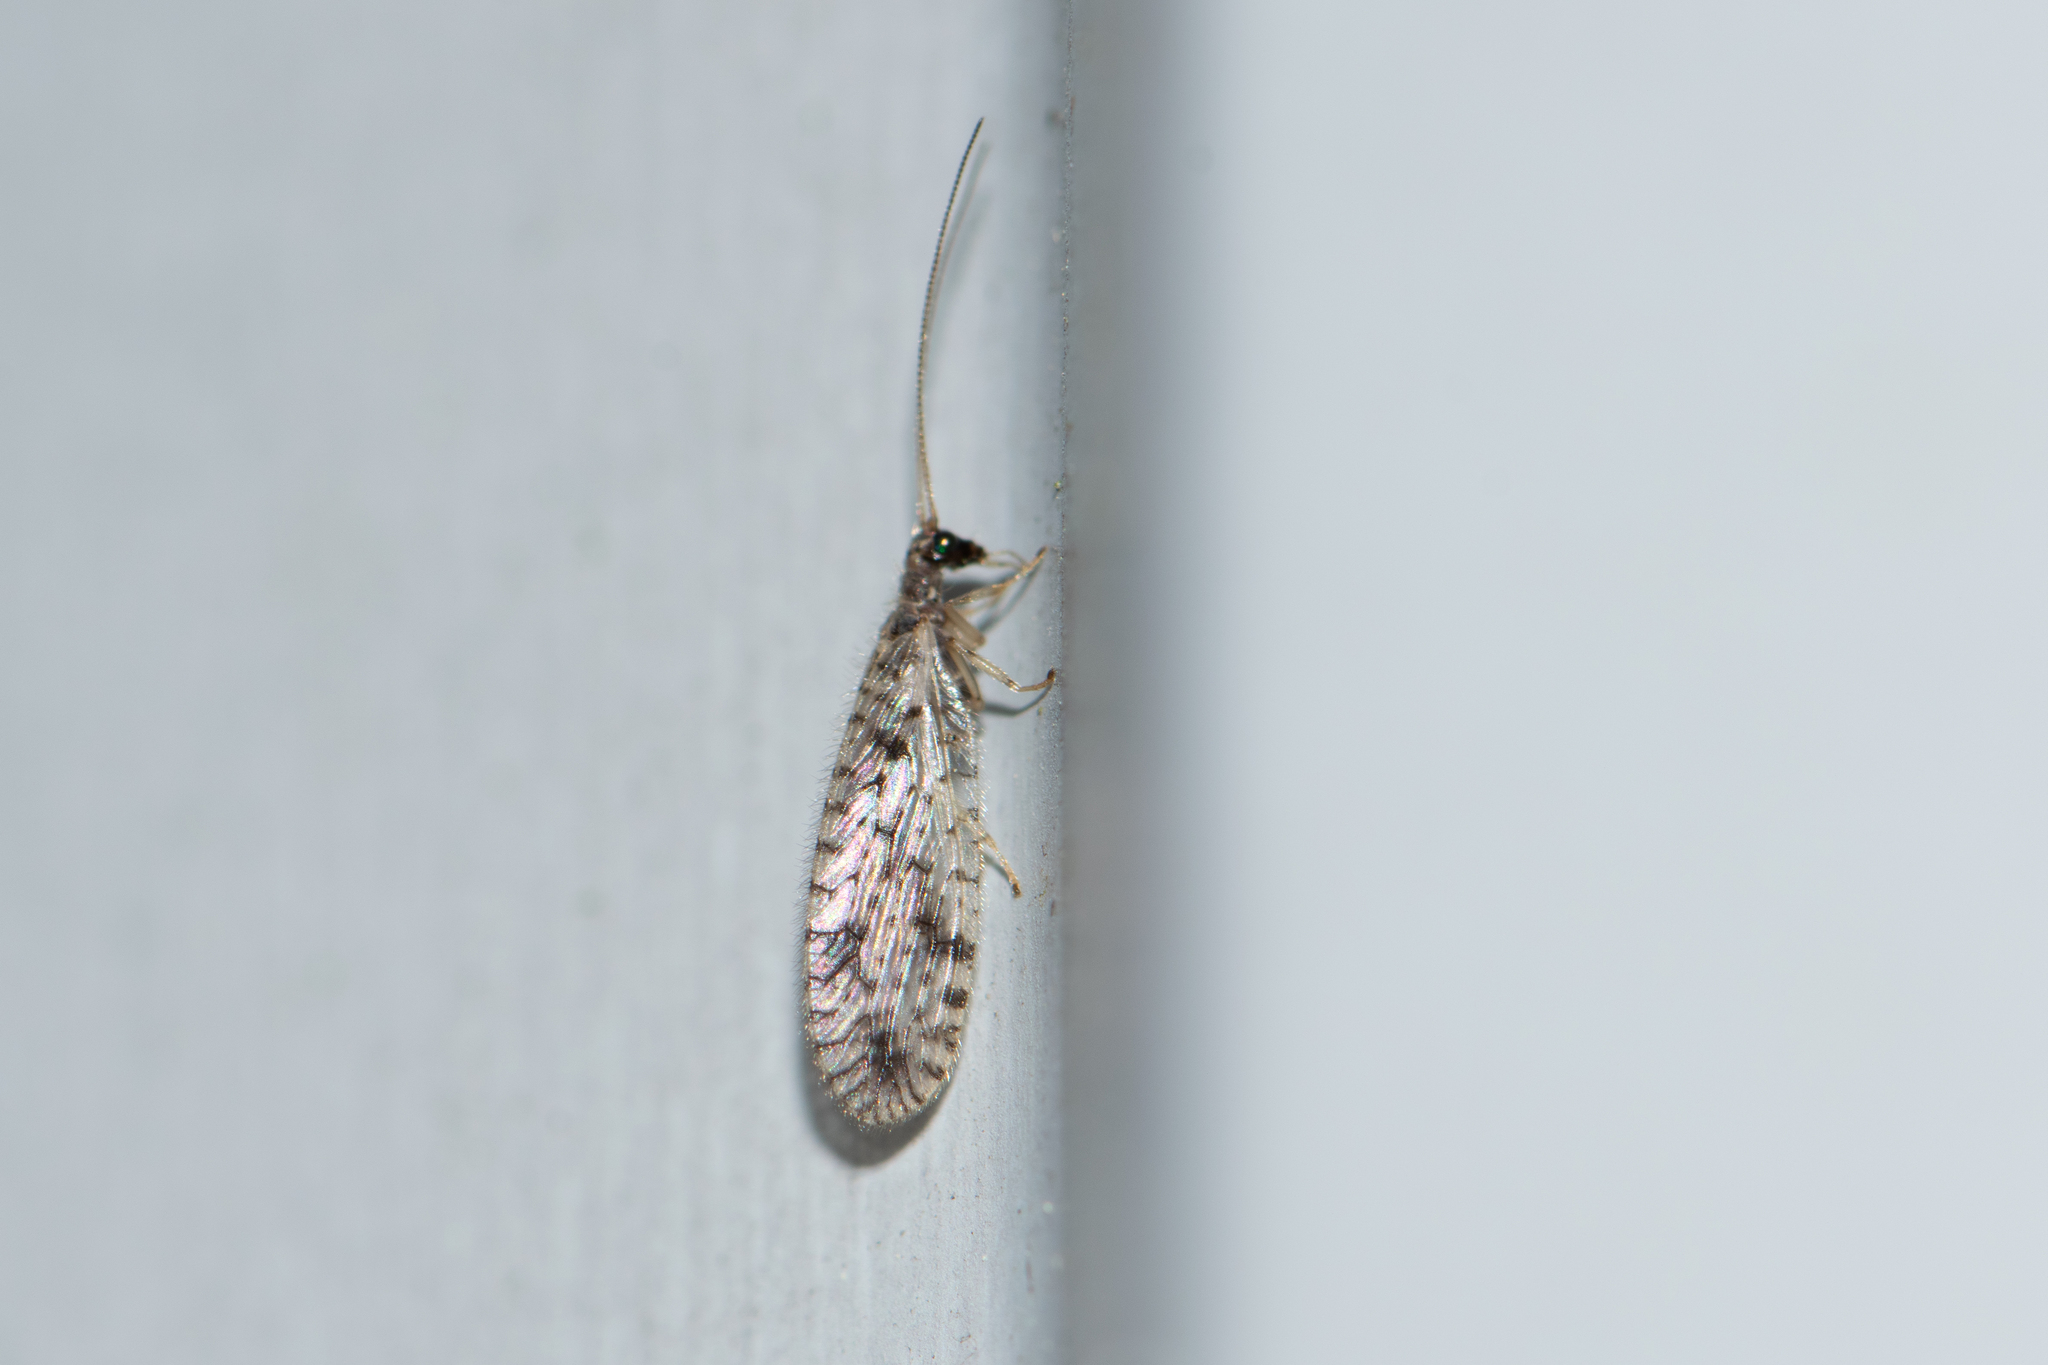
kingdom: Animalia
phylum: Arthropoda
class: Insecta
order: Neuroptera
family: Hemerobiidae
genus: Micromus
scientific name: Micromus variegatus
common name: Brown lacewing
